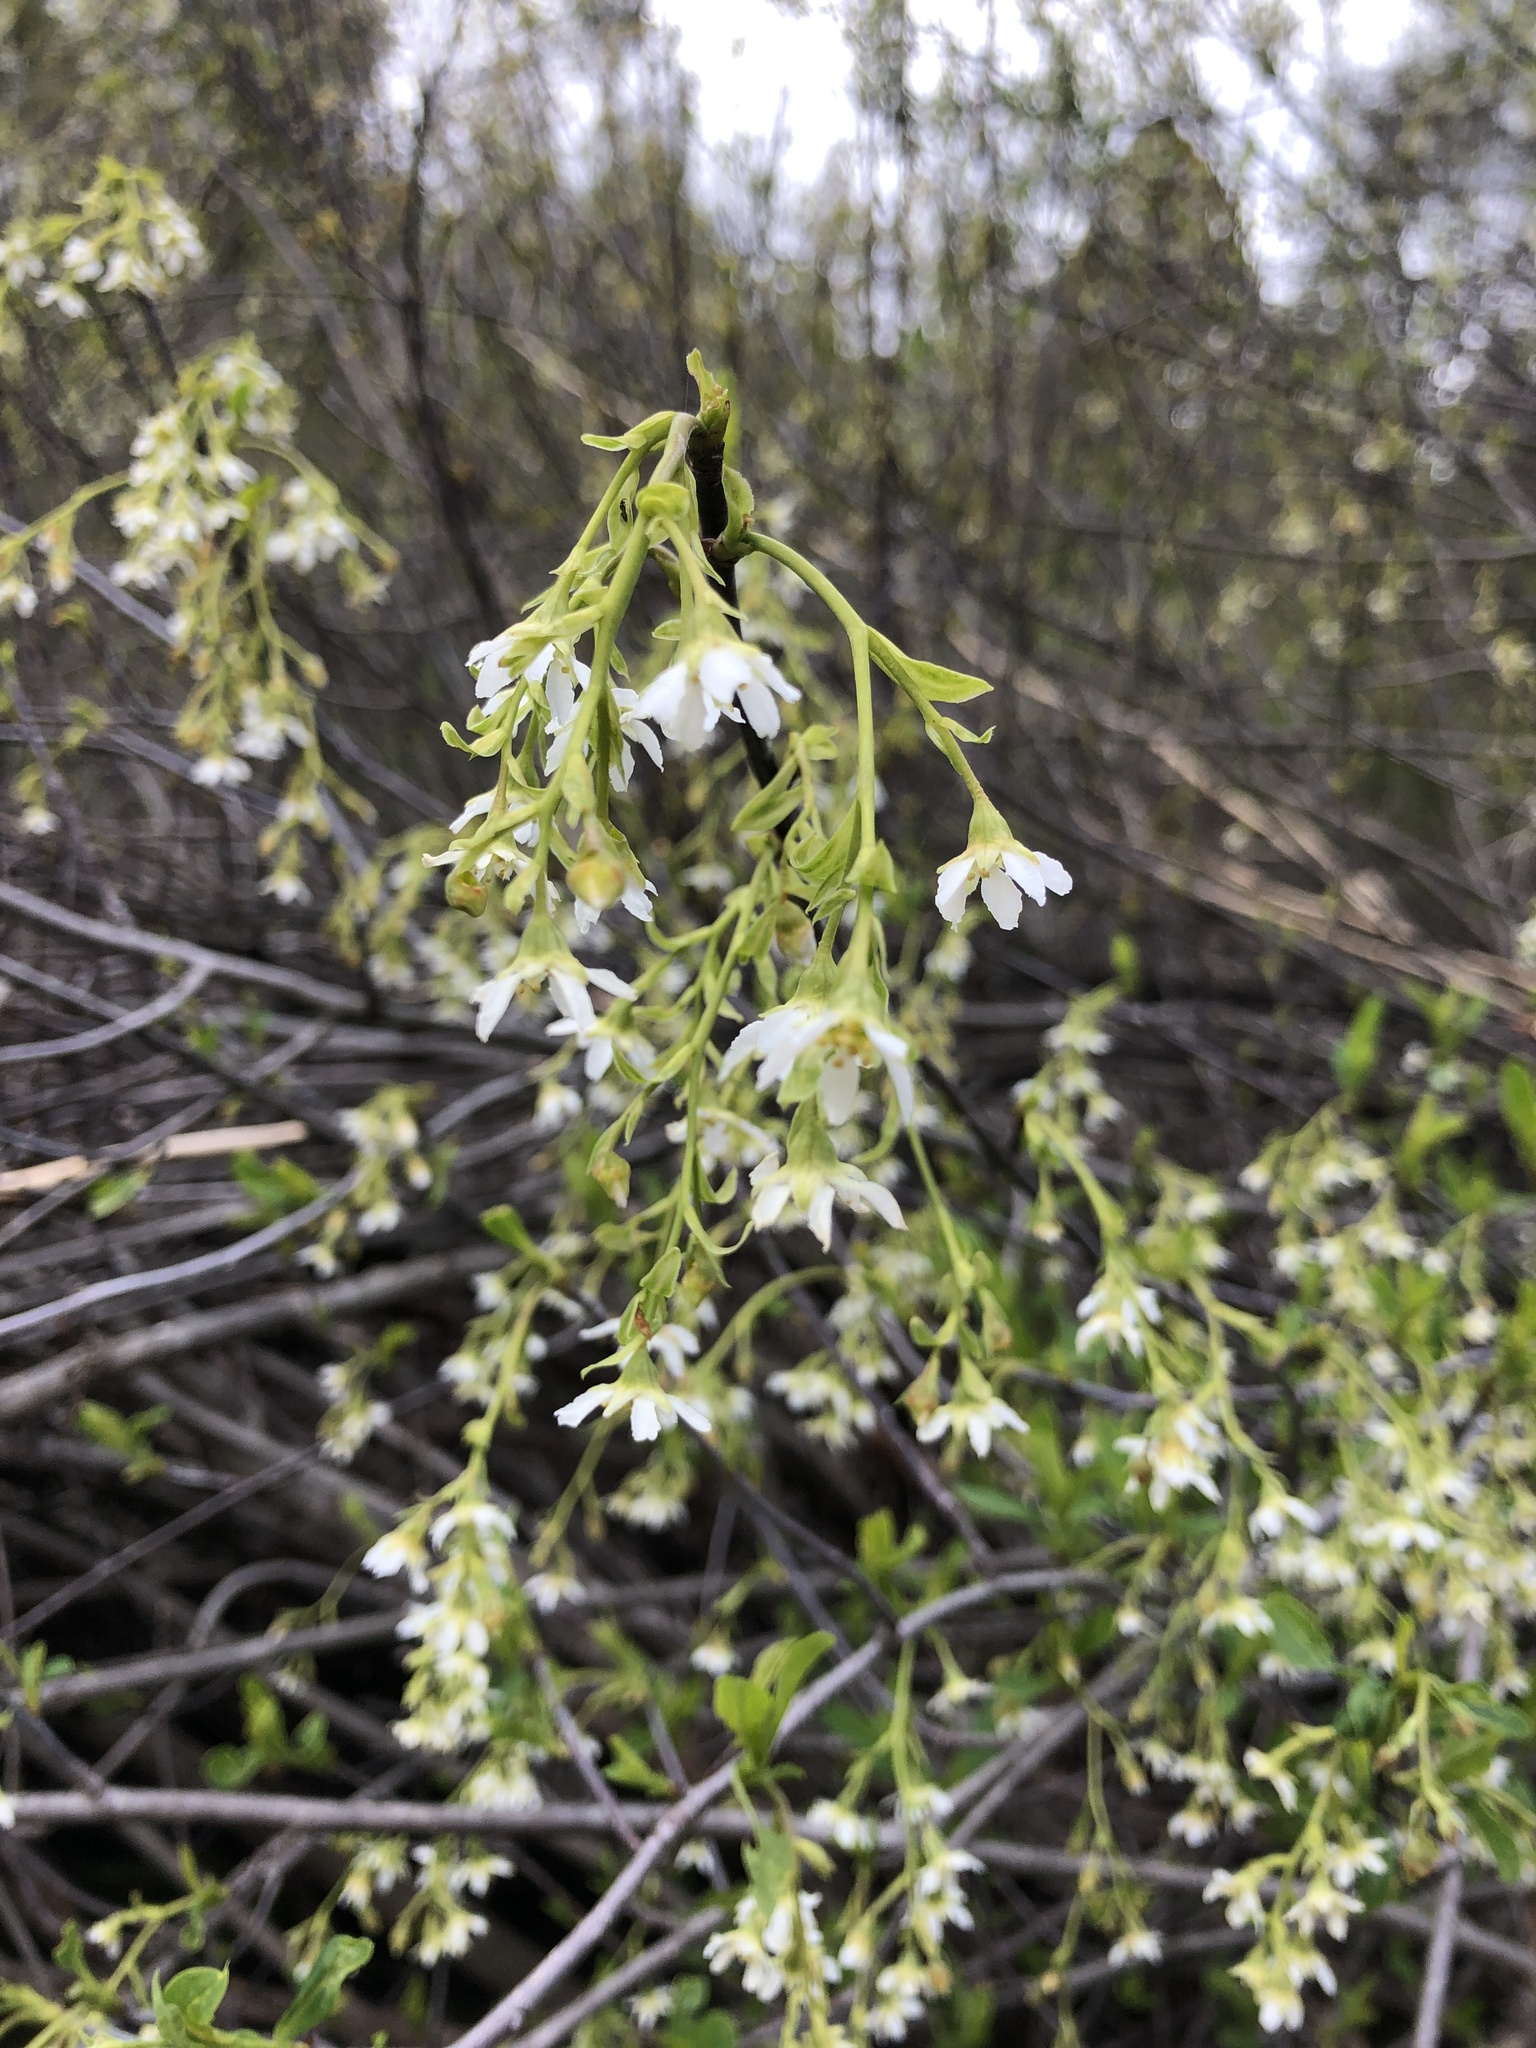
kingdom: Plantae
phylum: Tracheophyta
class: Magnoliopsida
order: Rosales
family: Rosaceae
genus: Oemleria
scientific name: Oemleria cerasiformis
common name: Osoberry
